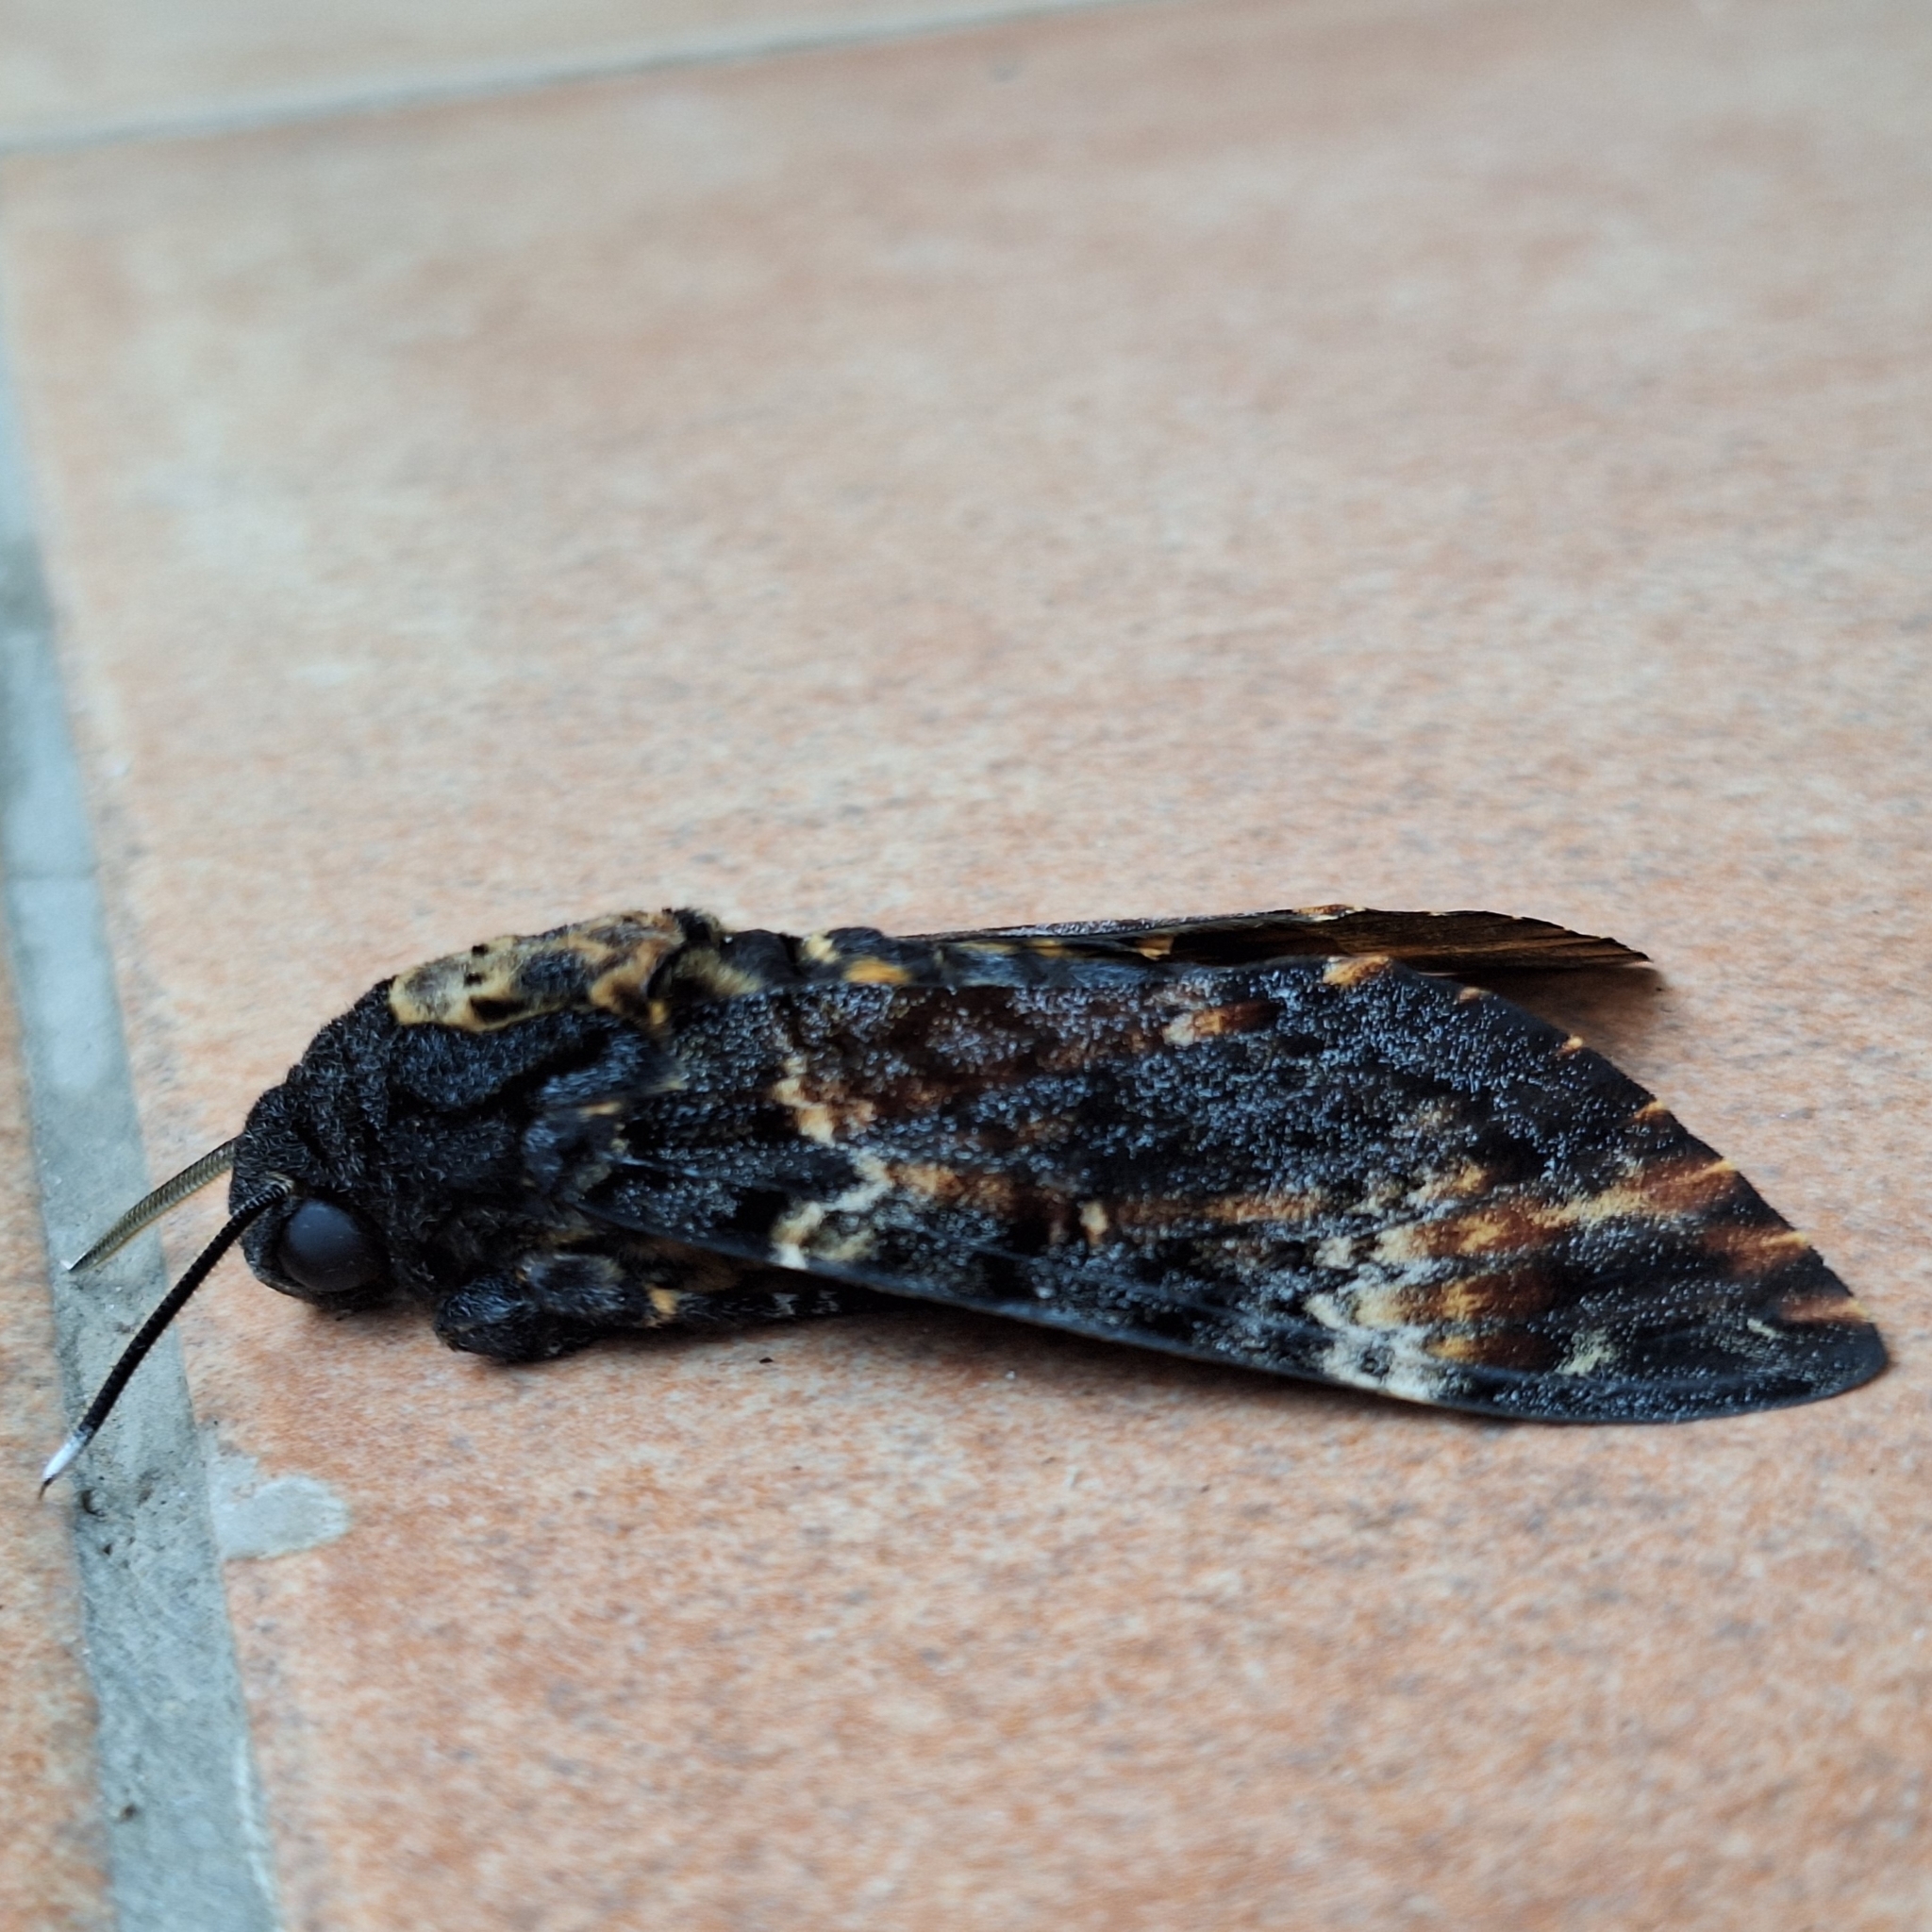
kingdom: Animalia
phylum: Arthropoda
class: Insecta
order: Lepidoptera
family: Sphingidae
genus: Acherontia
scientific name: Acherontia atropos
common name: Death's-head hawk moth
